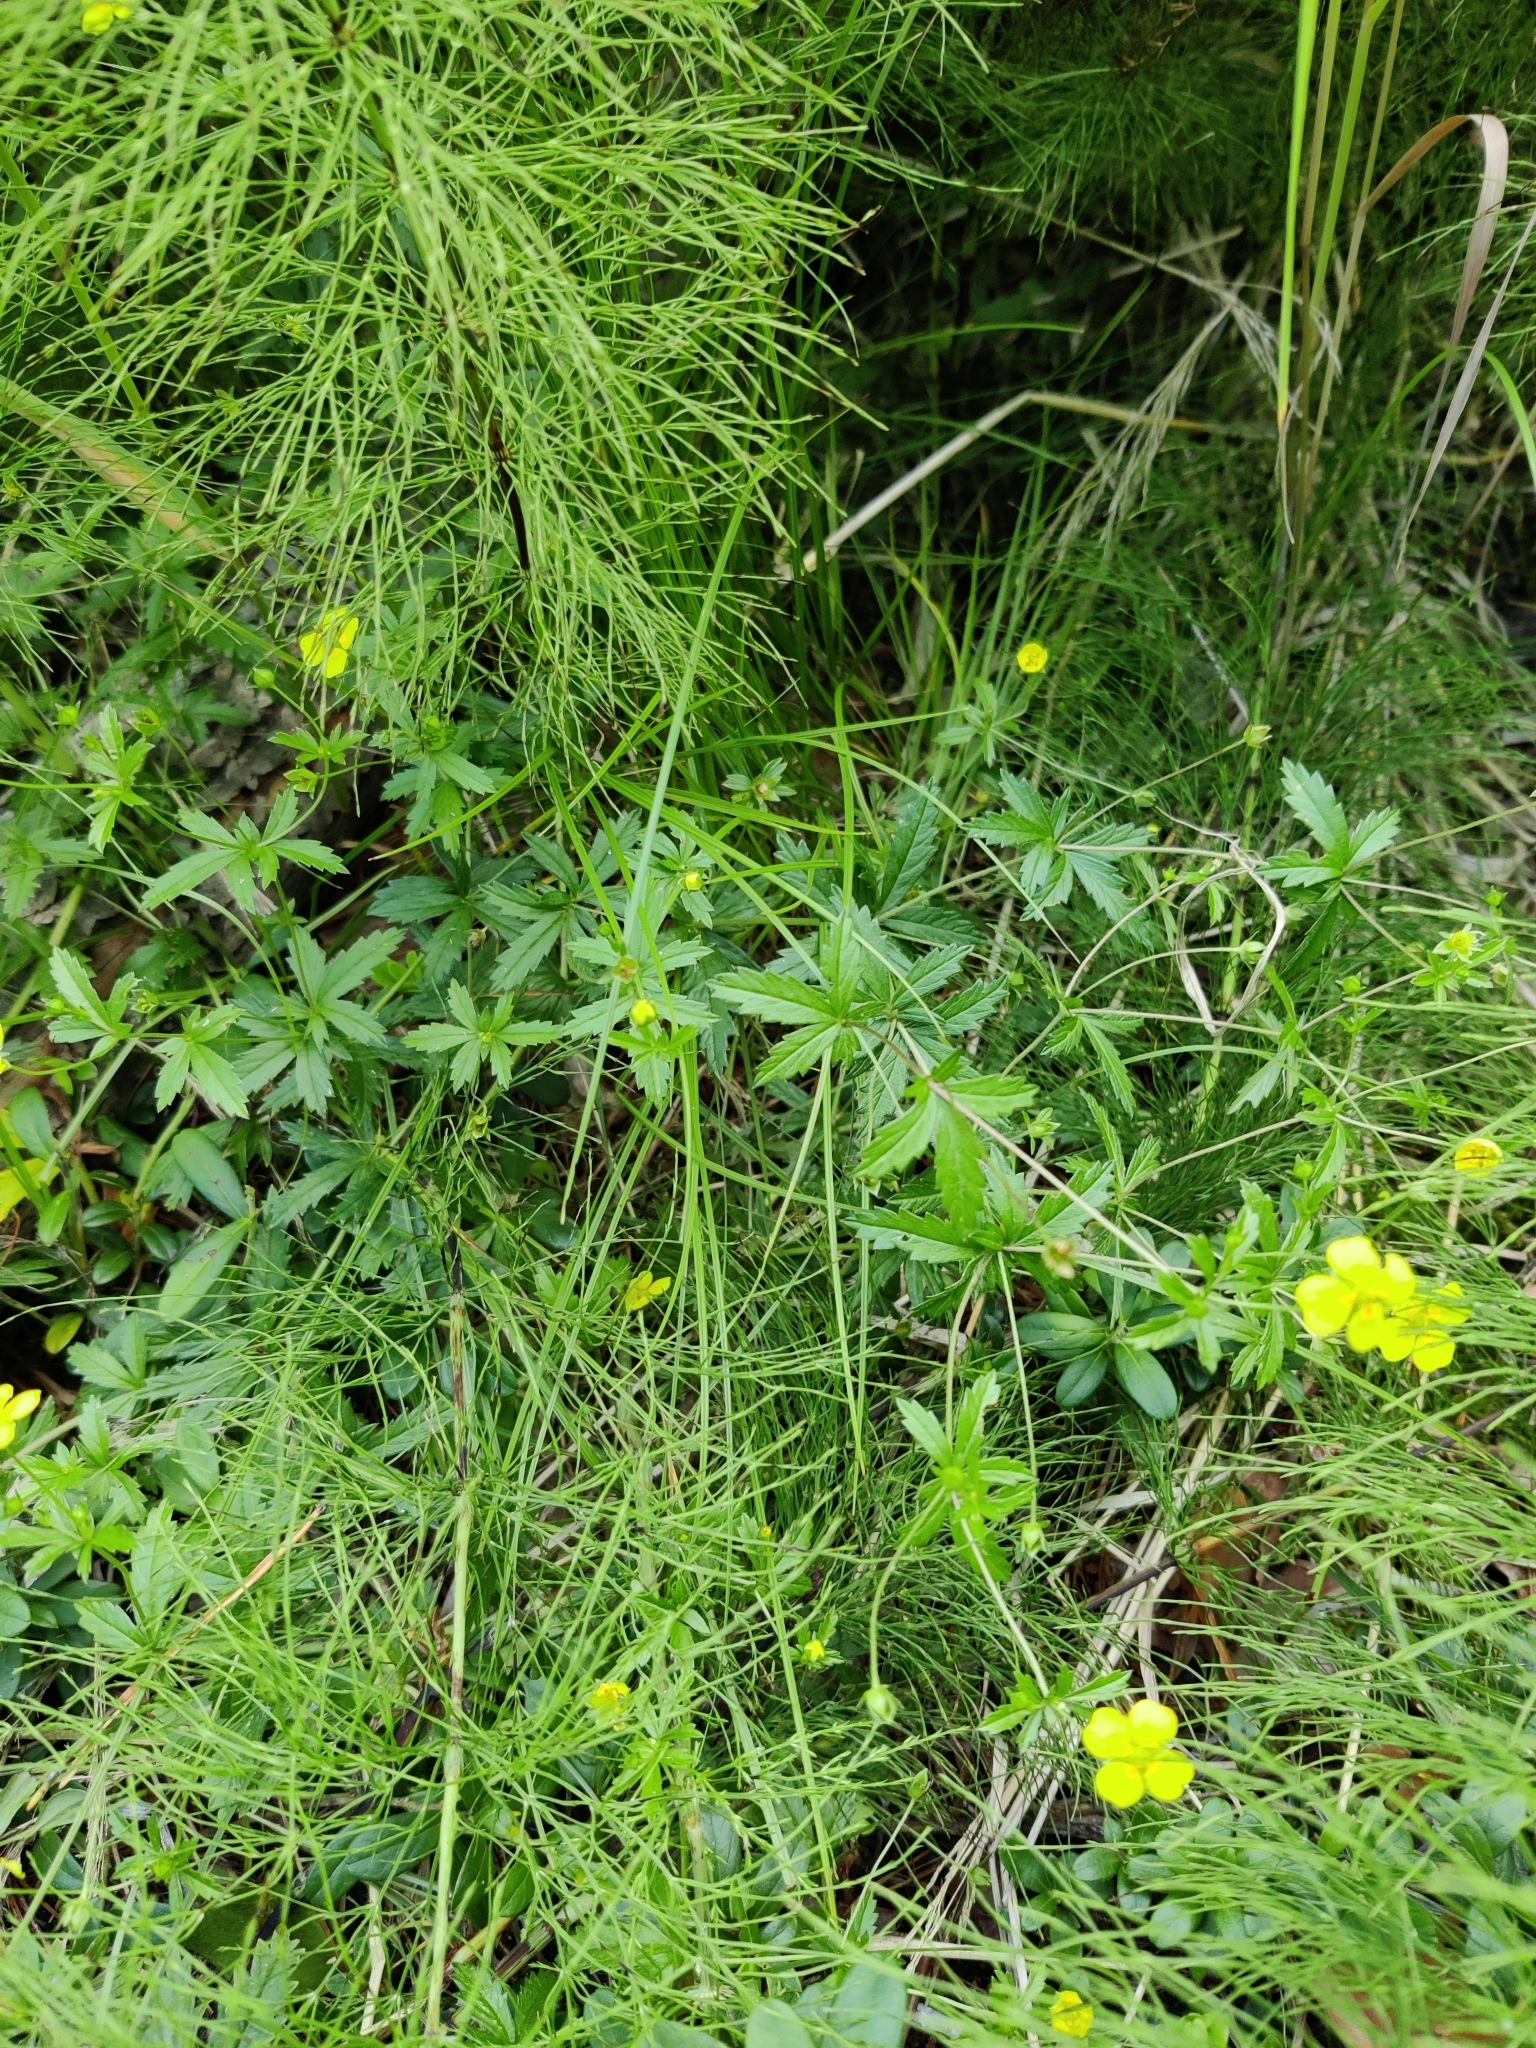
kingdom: Plantae
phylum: Tracheophyta
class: Magnoliopsida
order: Rosales
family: Rosaceae
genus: Potentilla
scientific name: Potentilla erecta
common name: Tormentil
